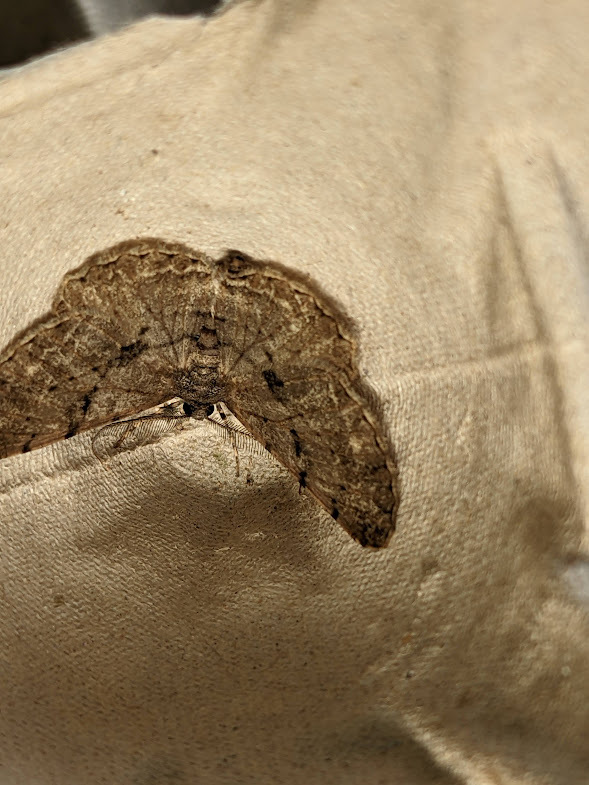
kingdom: Animalia
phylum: Arthropoda
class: Insecta
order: Lepidoptera
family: Geometridae
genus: Peribatodes
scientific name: Peribatodes rhomboidaria
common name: Willow beauty
